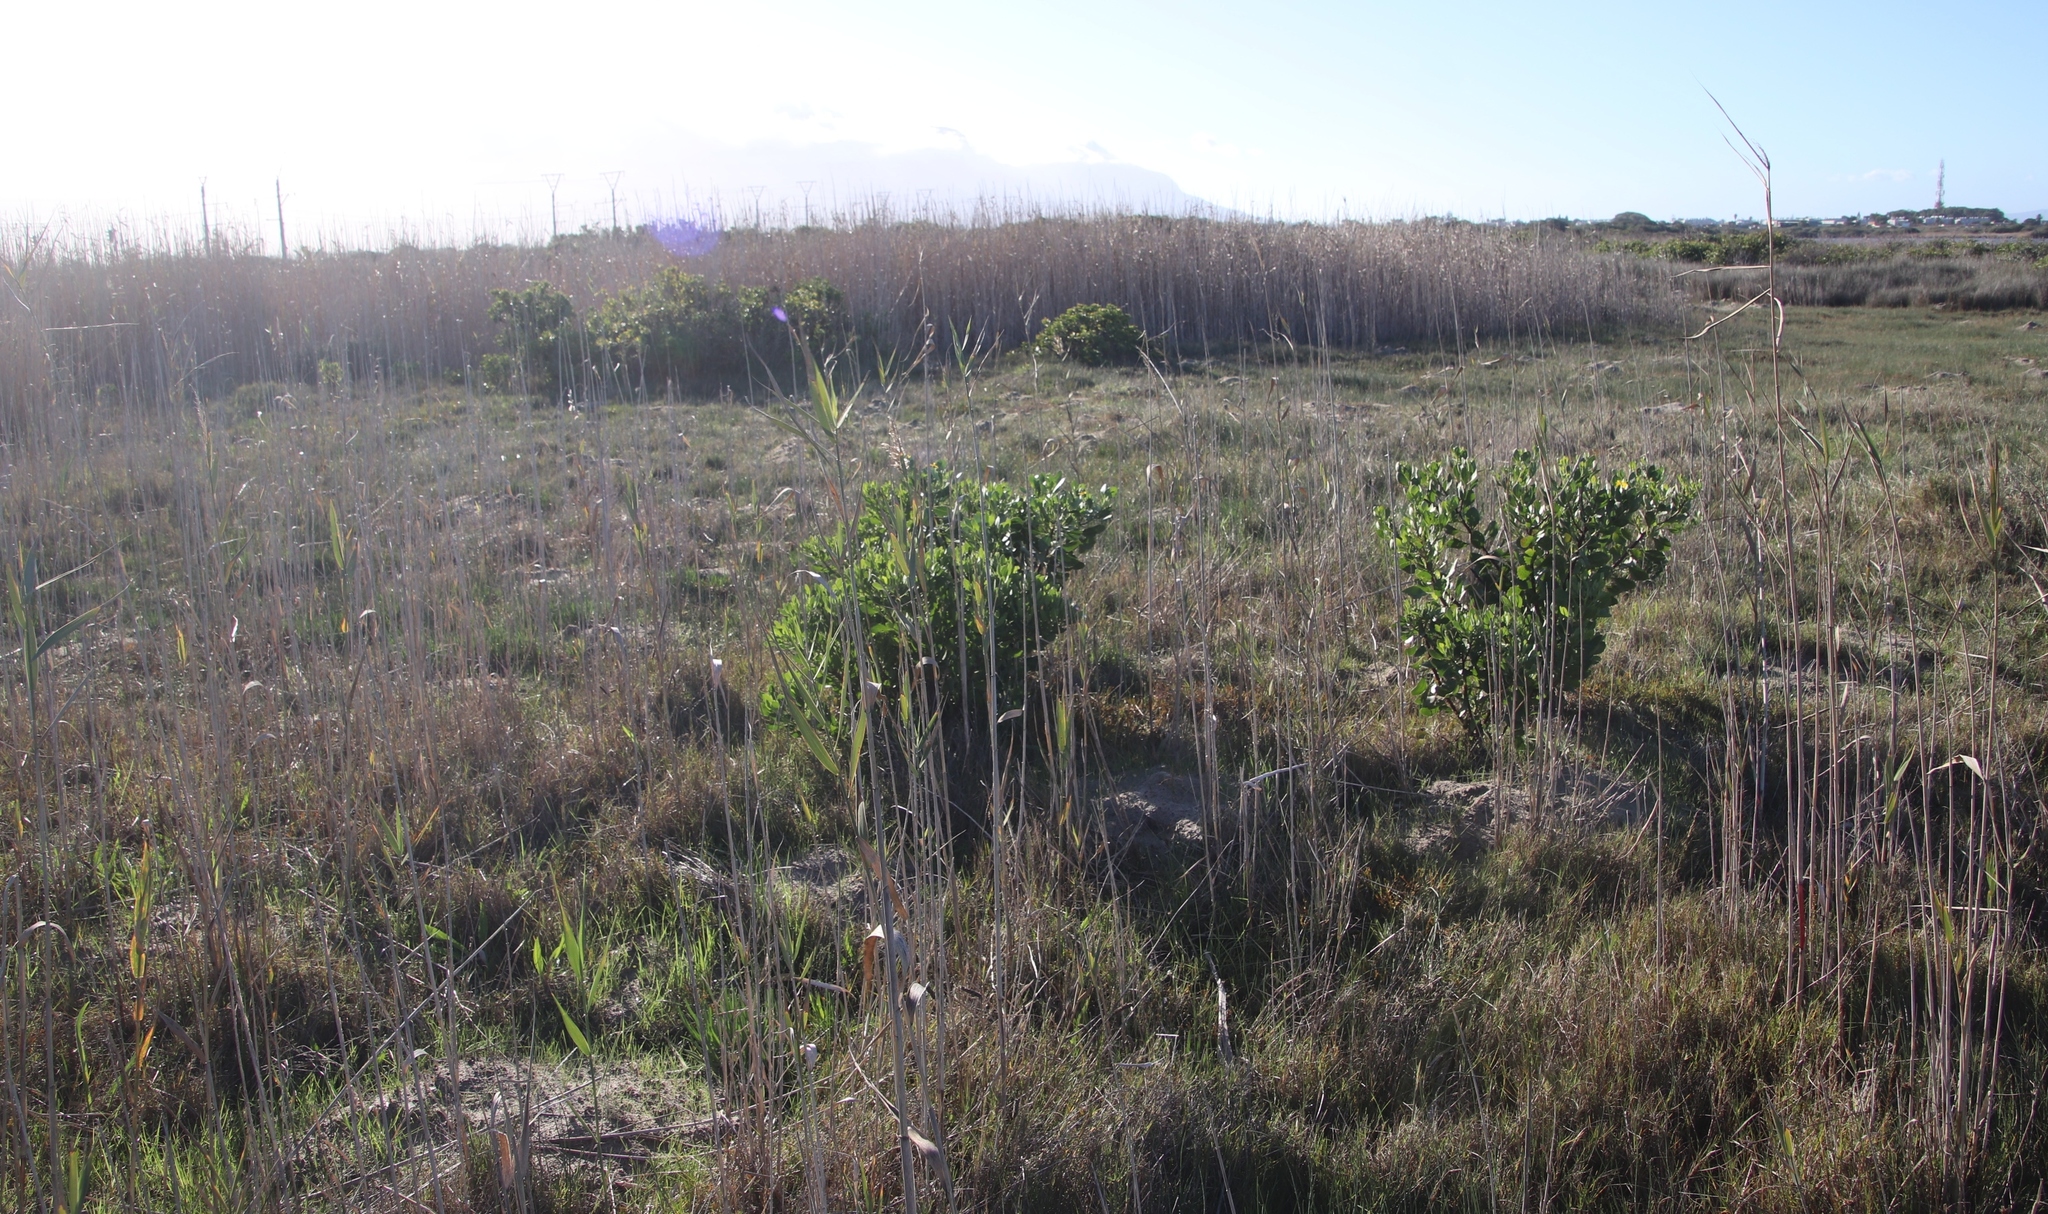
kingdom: Plantae
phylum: Tracheophyta
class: Magnoliopsida
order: Asterales
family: Asteraceae
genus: Osteospermum
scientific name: Osteospermum moniliferum
